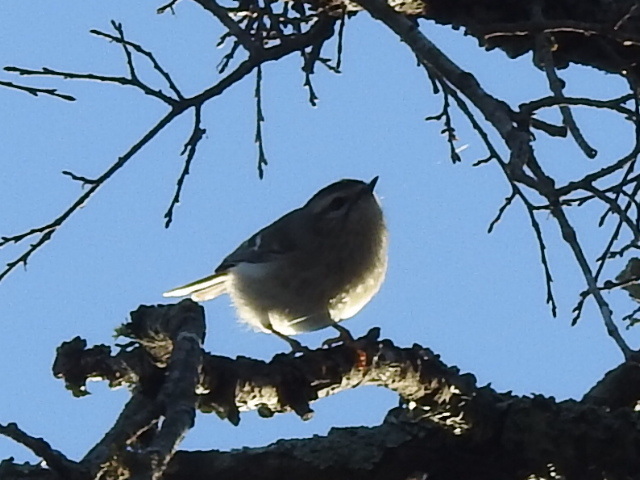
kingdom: Animalia
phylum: Chordata
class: Aves
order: Passeriformes
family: Regulidae
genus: Regulus
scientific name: Regulus satrapa
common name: Golden-crowned kinglet
